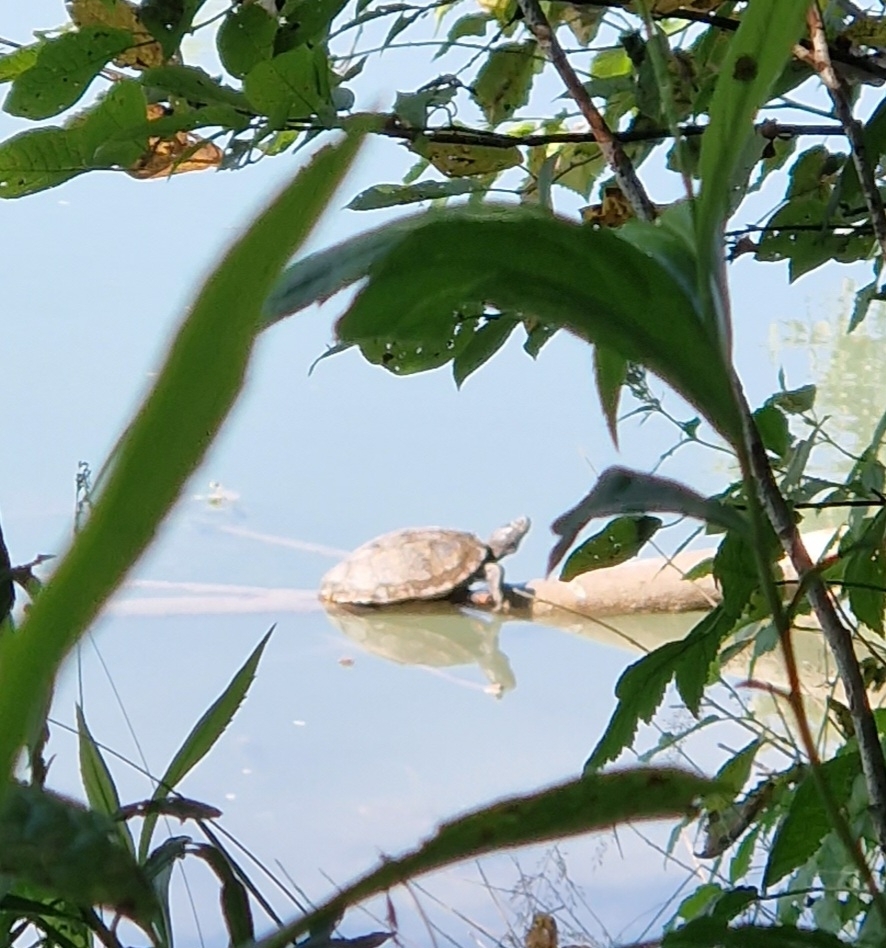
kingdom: Animalia
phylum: Chordata
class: Testudines
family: Emydidae
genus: Trachemys
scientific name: Trachemys scripta
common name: Slider
